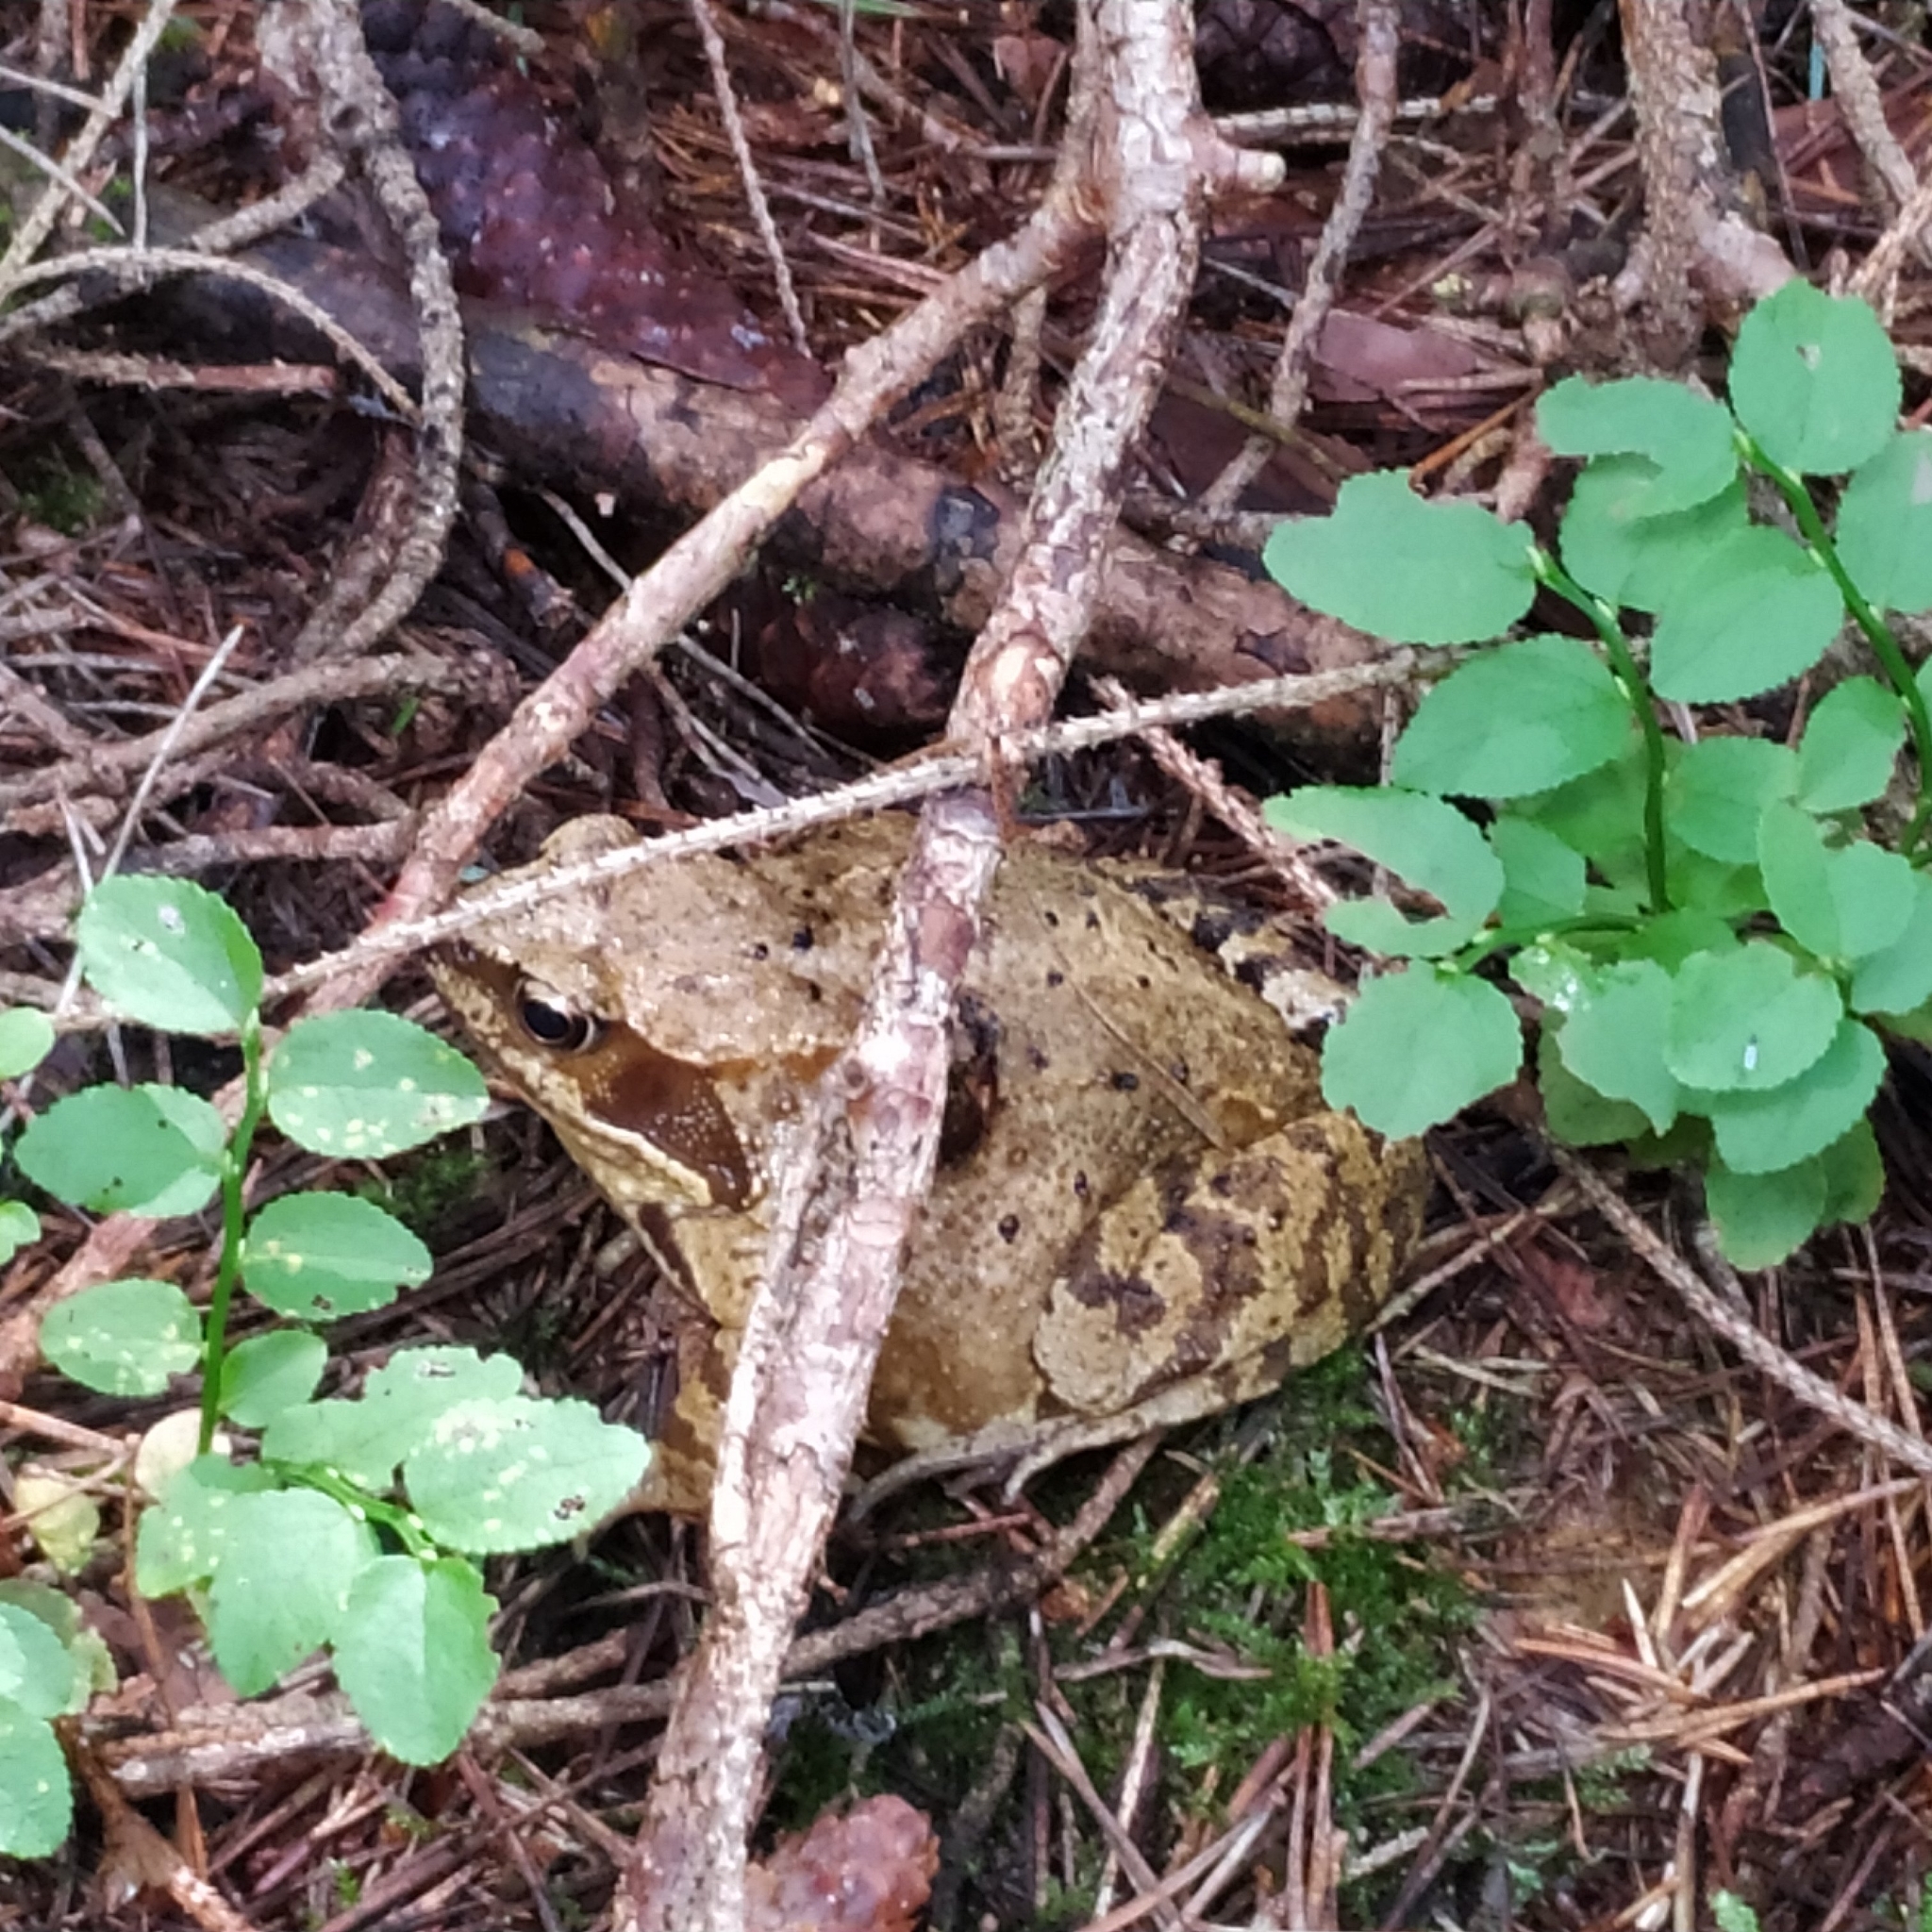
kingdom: Animalia
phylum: Chordata
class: Amphibia
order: Anura
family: Ranidae
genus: Rana
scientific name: Rana temporaria
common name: Common frog
